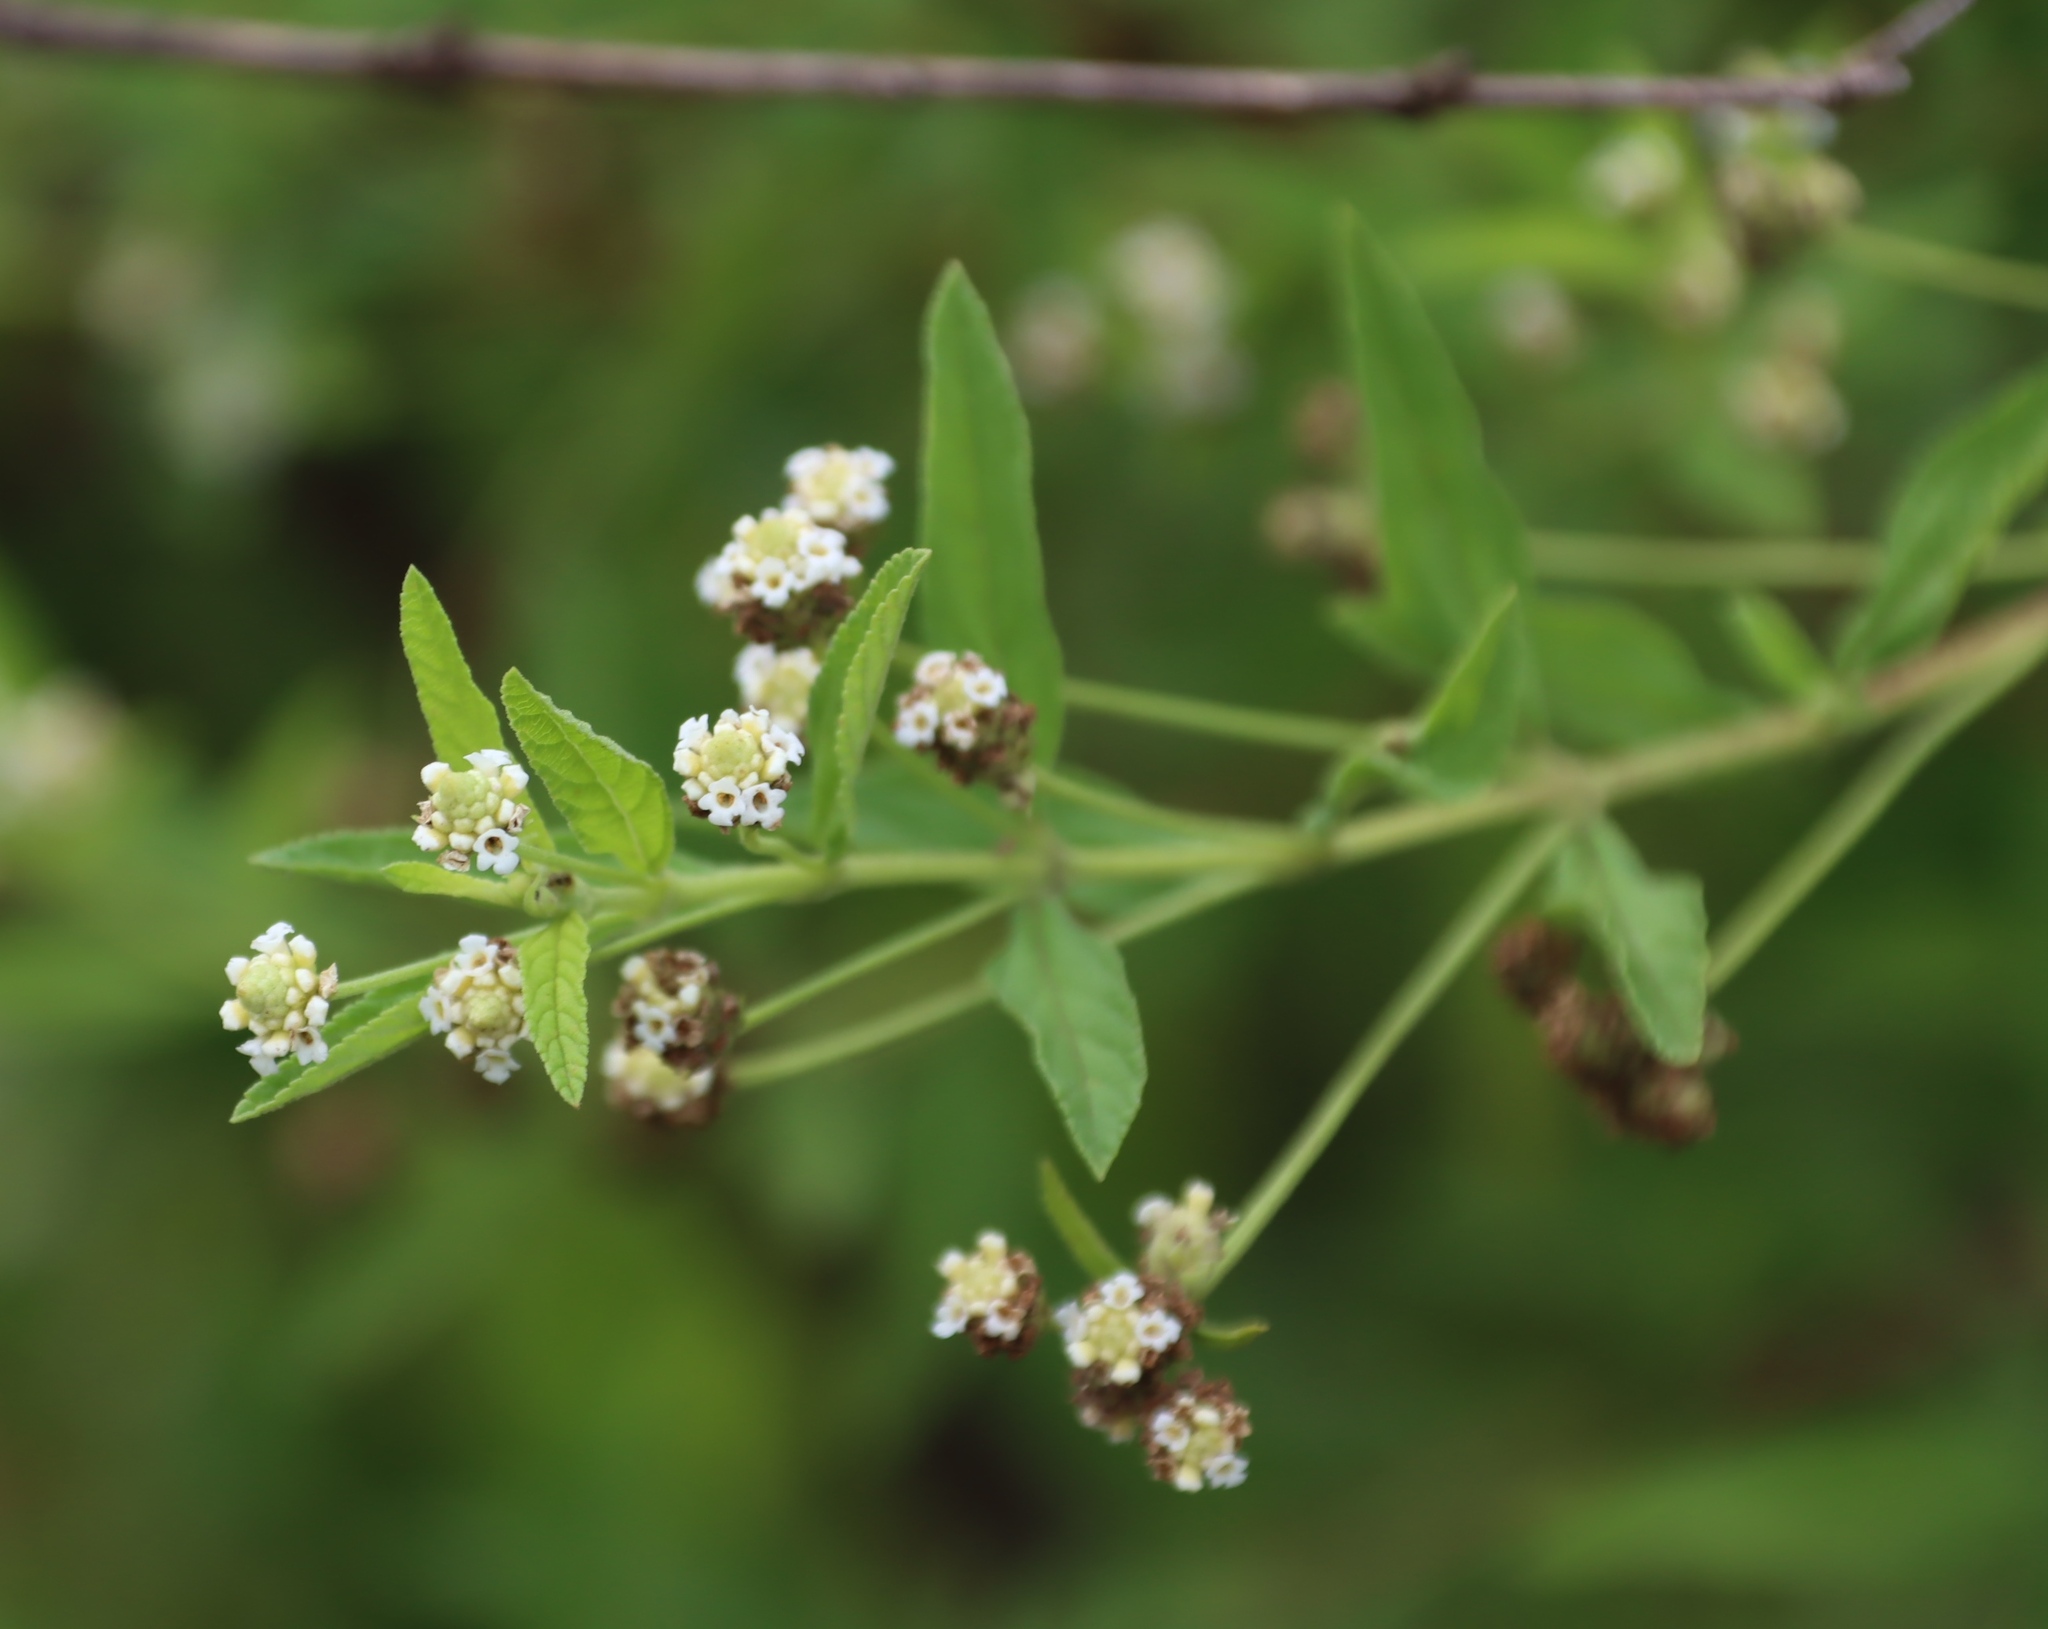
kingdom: Plantae
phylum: Tracheophyta
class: Magnoliopsida
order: Lamiales
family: Verbenaceae
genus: Lippia
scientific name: Lippia javanica
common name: Lemonbush
